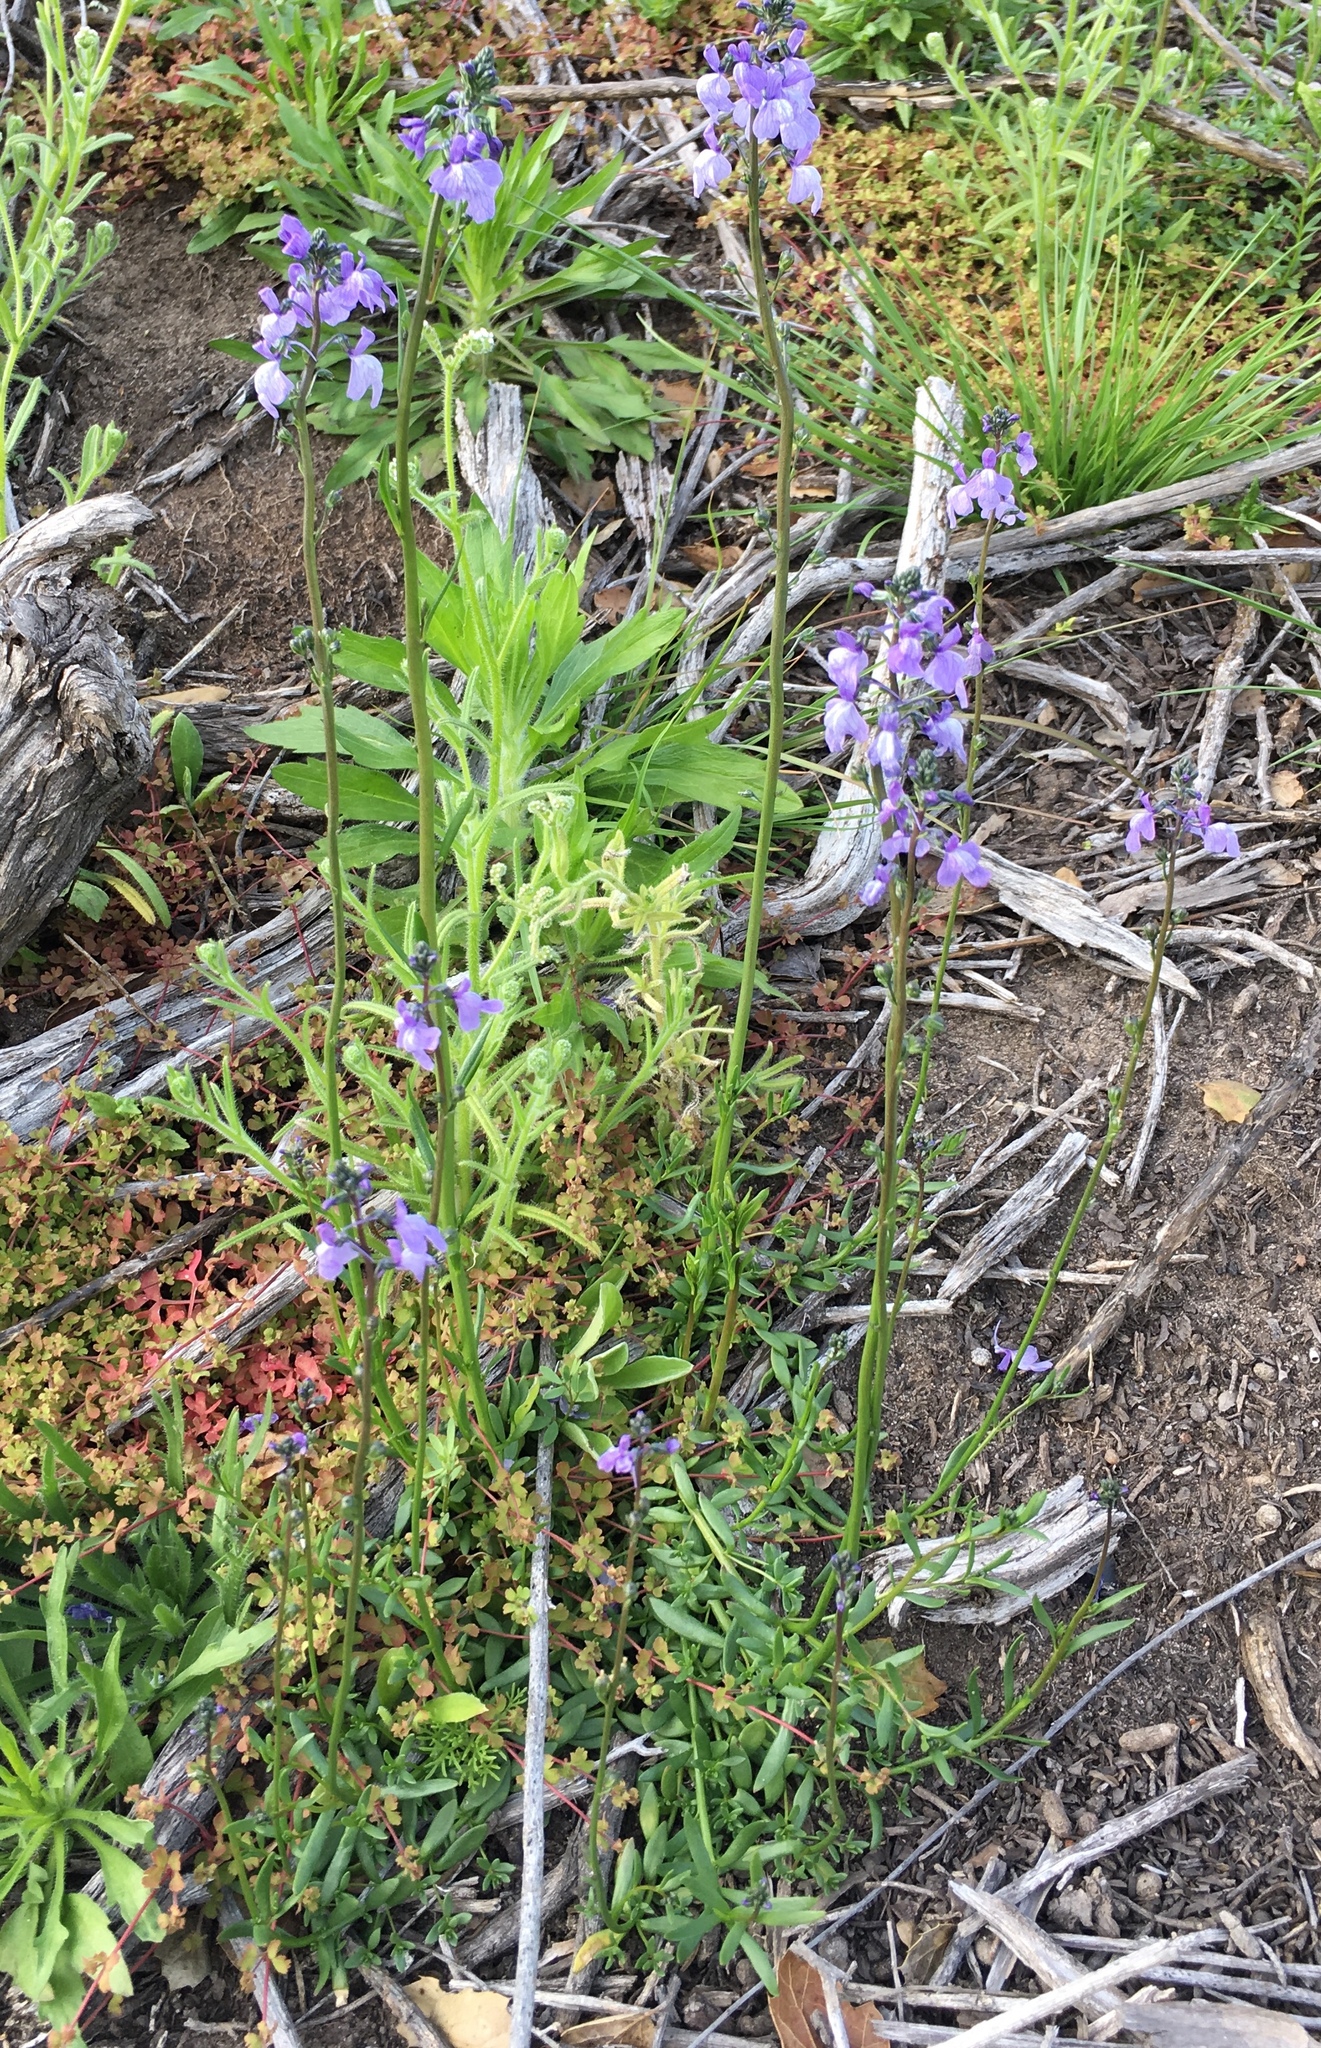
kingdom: Plantae
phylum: Tracheophyta
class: Magnoliopsida
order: Lamiales
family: Plantaginaceae
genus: Nuttallanthus
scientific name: Nuttallanthus texanus
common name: Texas toadflax
